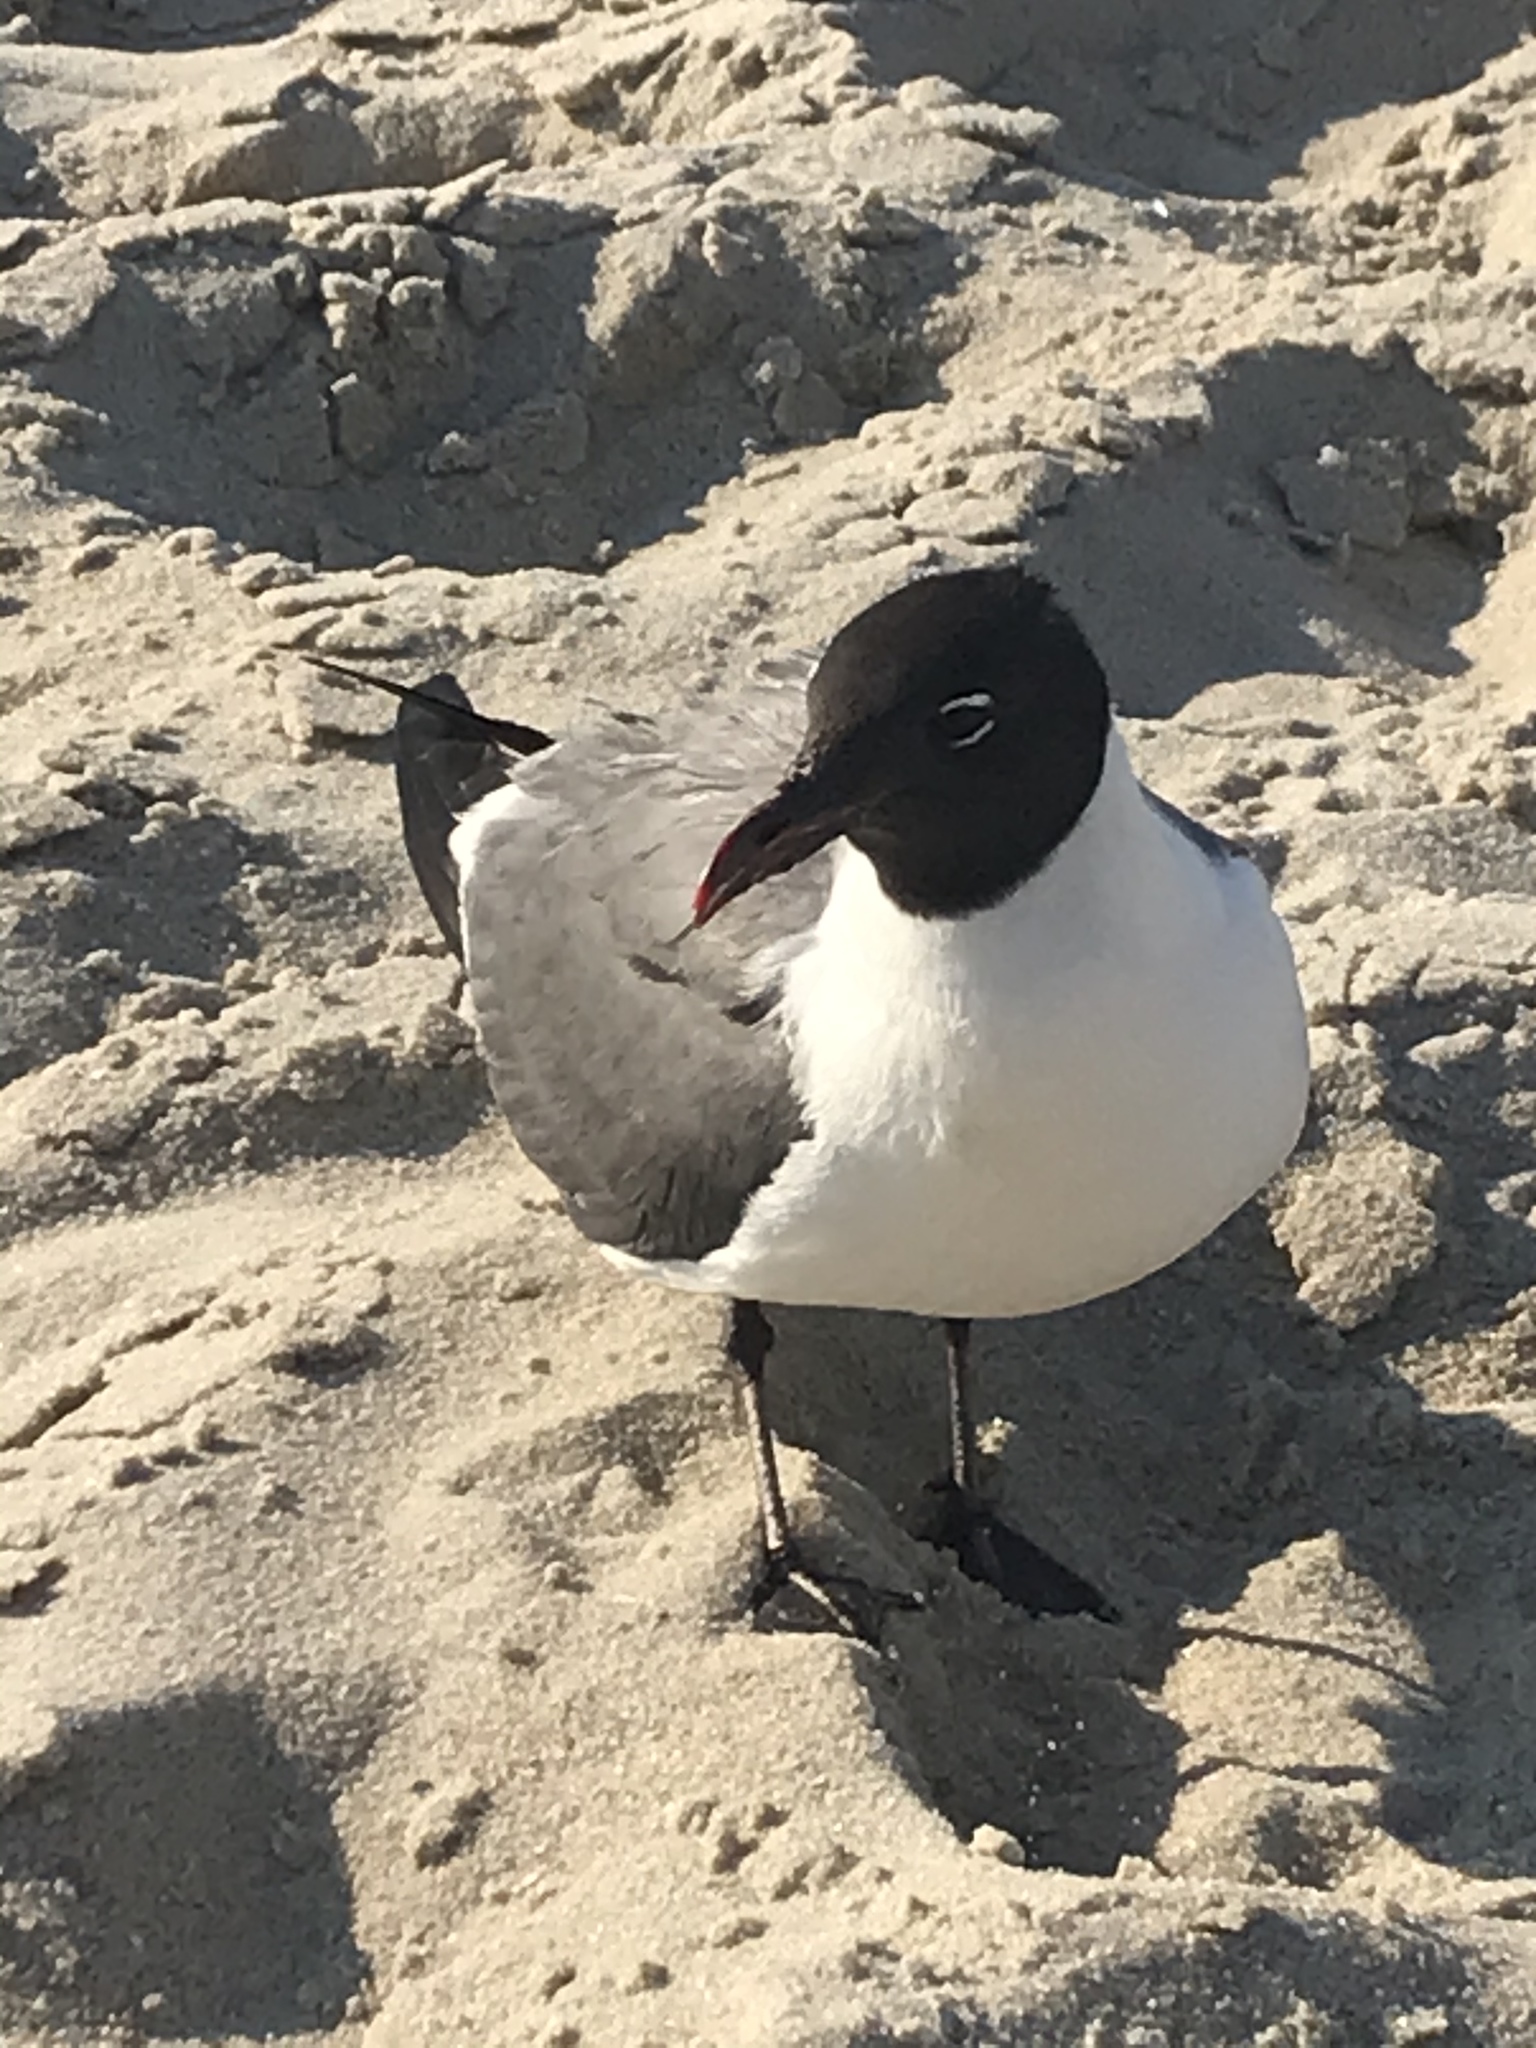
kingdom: Animalia
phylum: Chordata
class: Aves
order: Charadriiformes
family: Laridae
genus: Leucophaeus
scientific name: Leucophaeus atricilla
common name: Laughing gull
